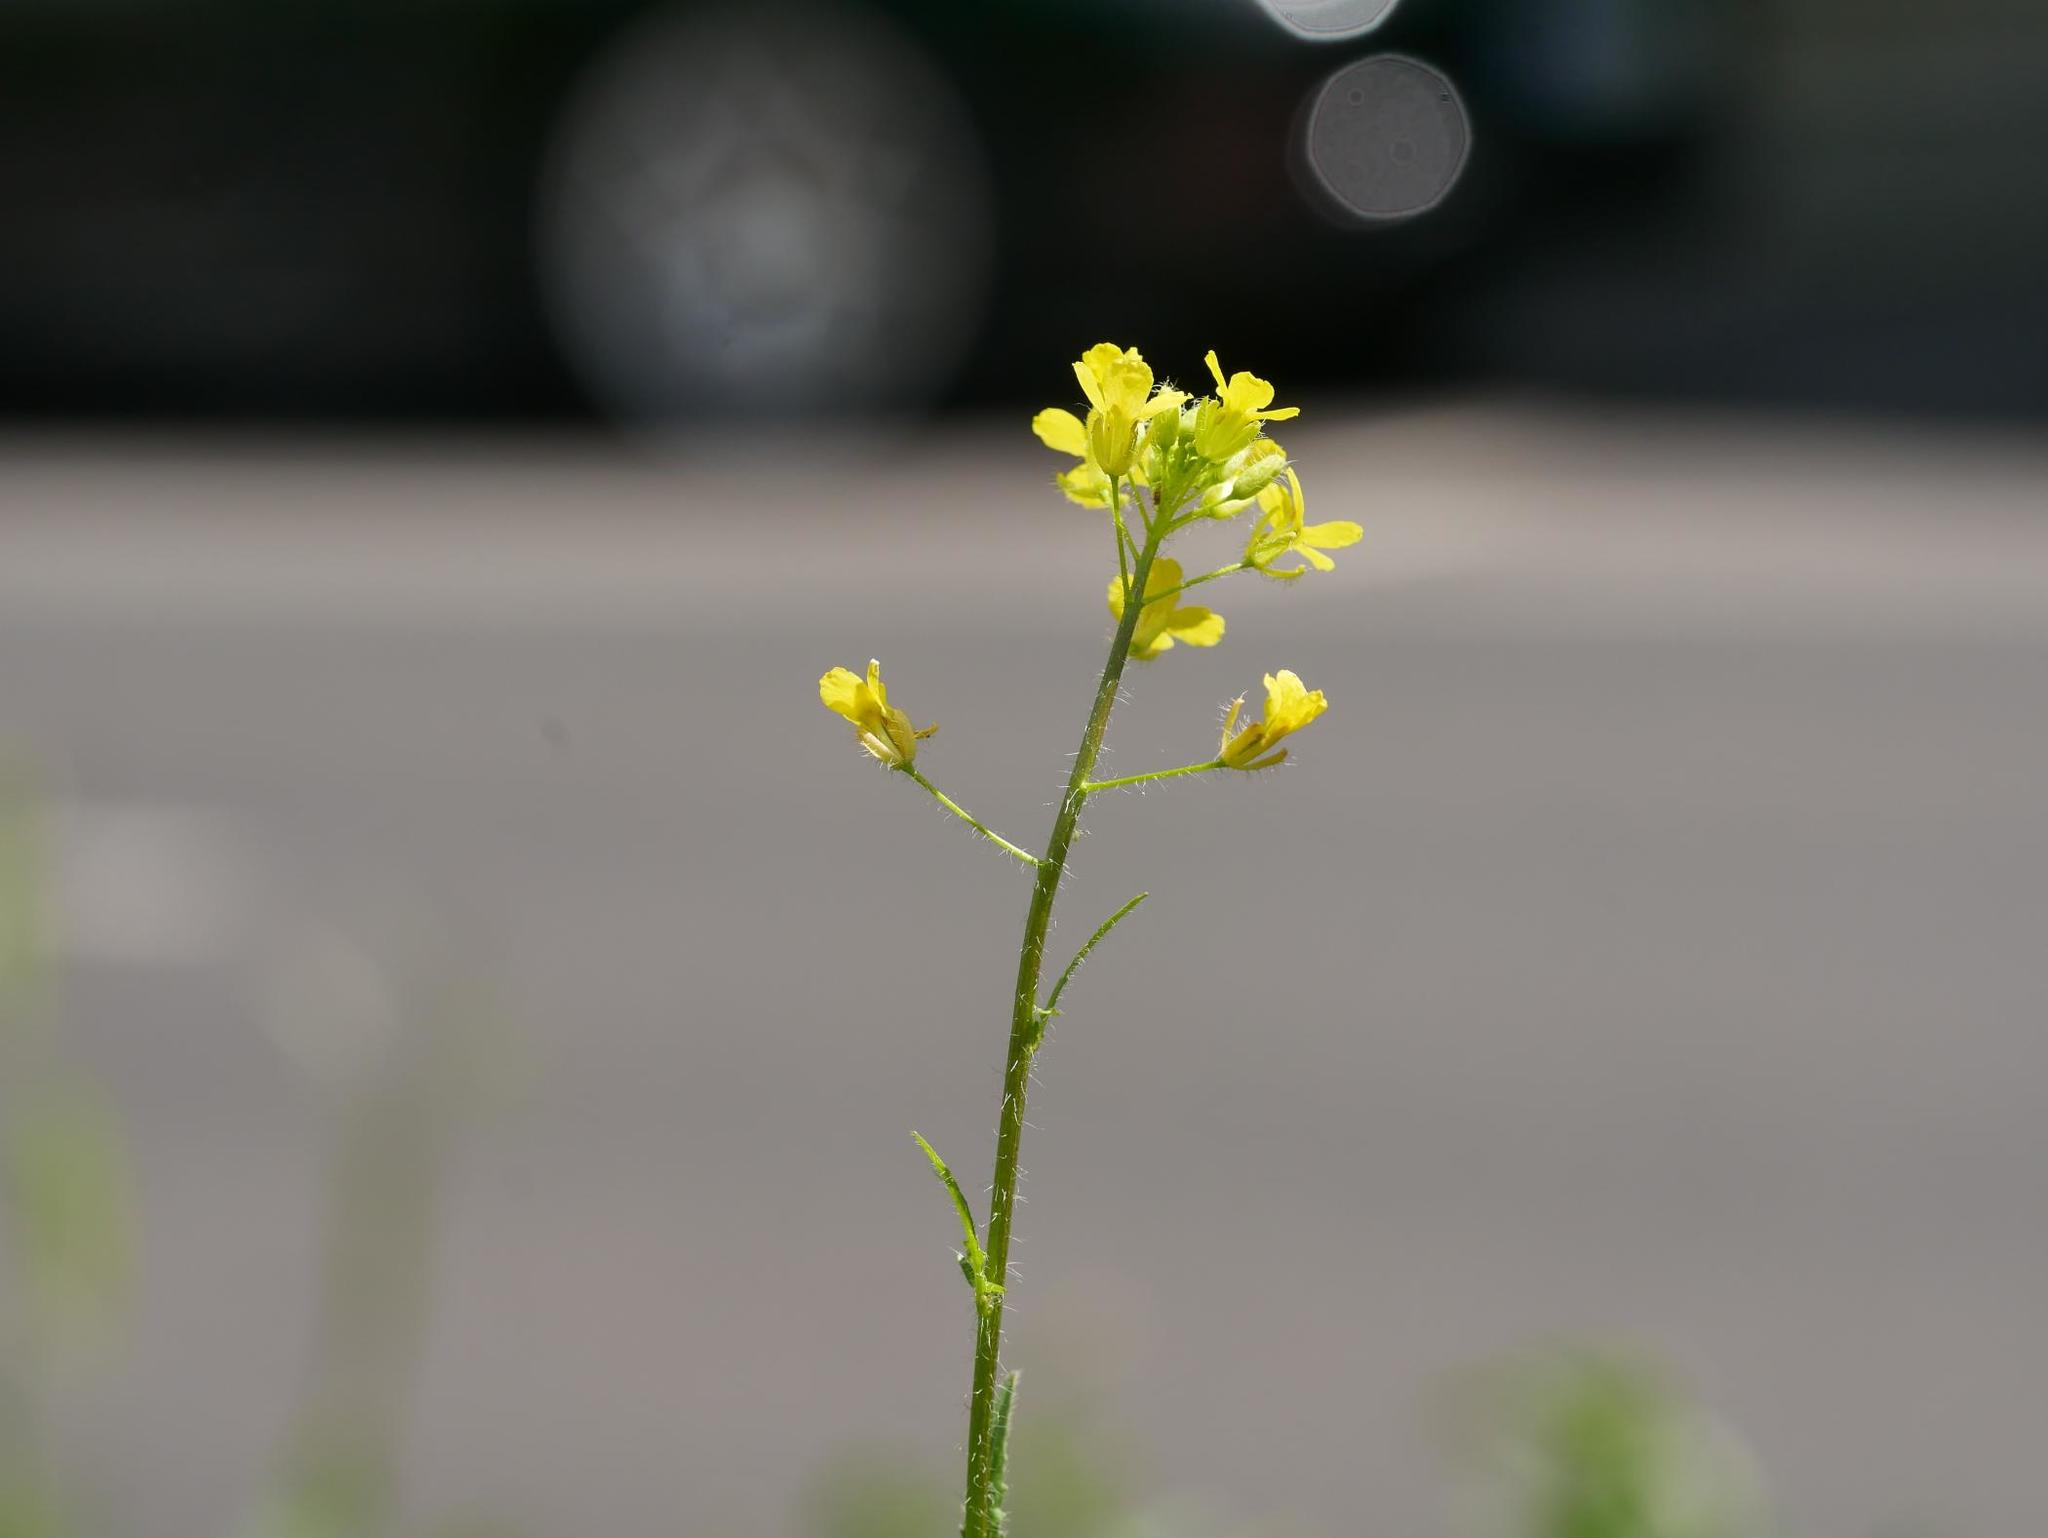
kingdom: Plantae
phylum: Tracheophyta
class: Magnoliopsida
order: Brassicales
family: Brassicaceae
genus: Sisymbrium
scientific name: Sisymbrium loeselii
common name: False london-rocket
